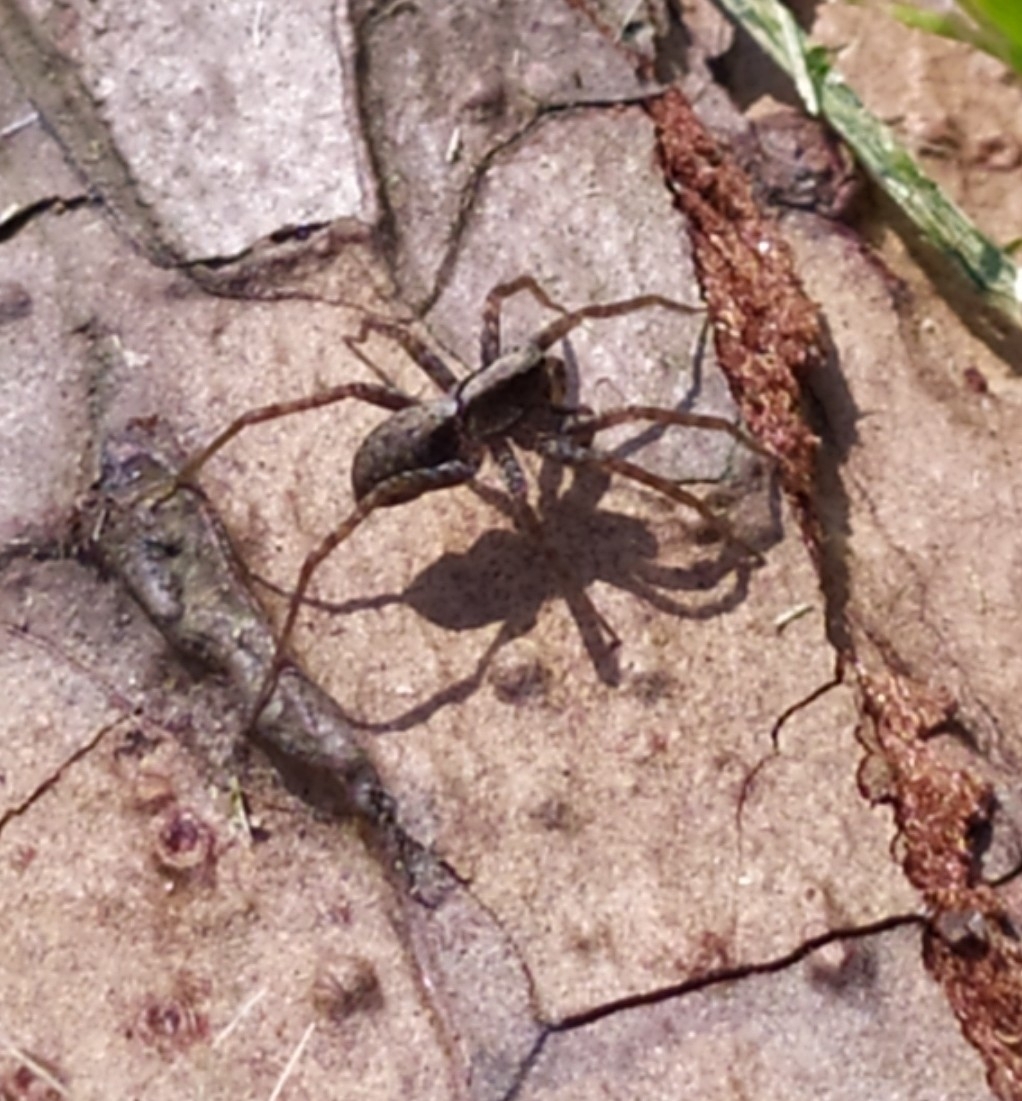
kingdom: Animalia
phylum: Arthropoda
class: Arachnida
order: Araneae
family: Lycosidae
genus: Pardosa
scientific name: Pardosa
